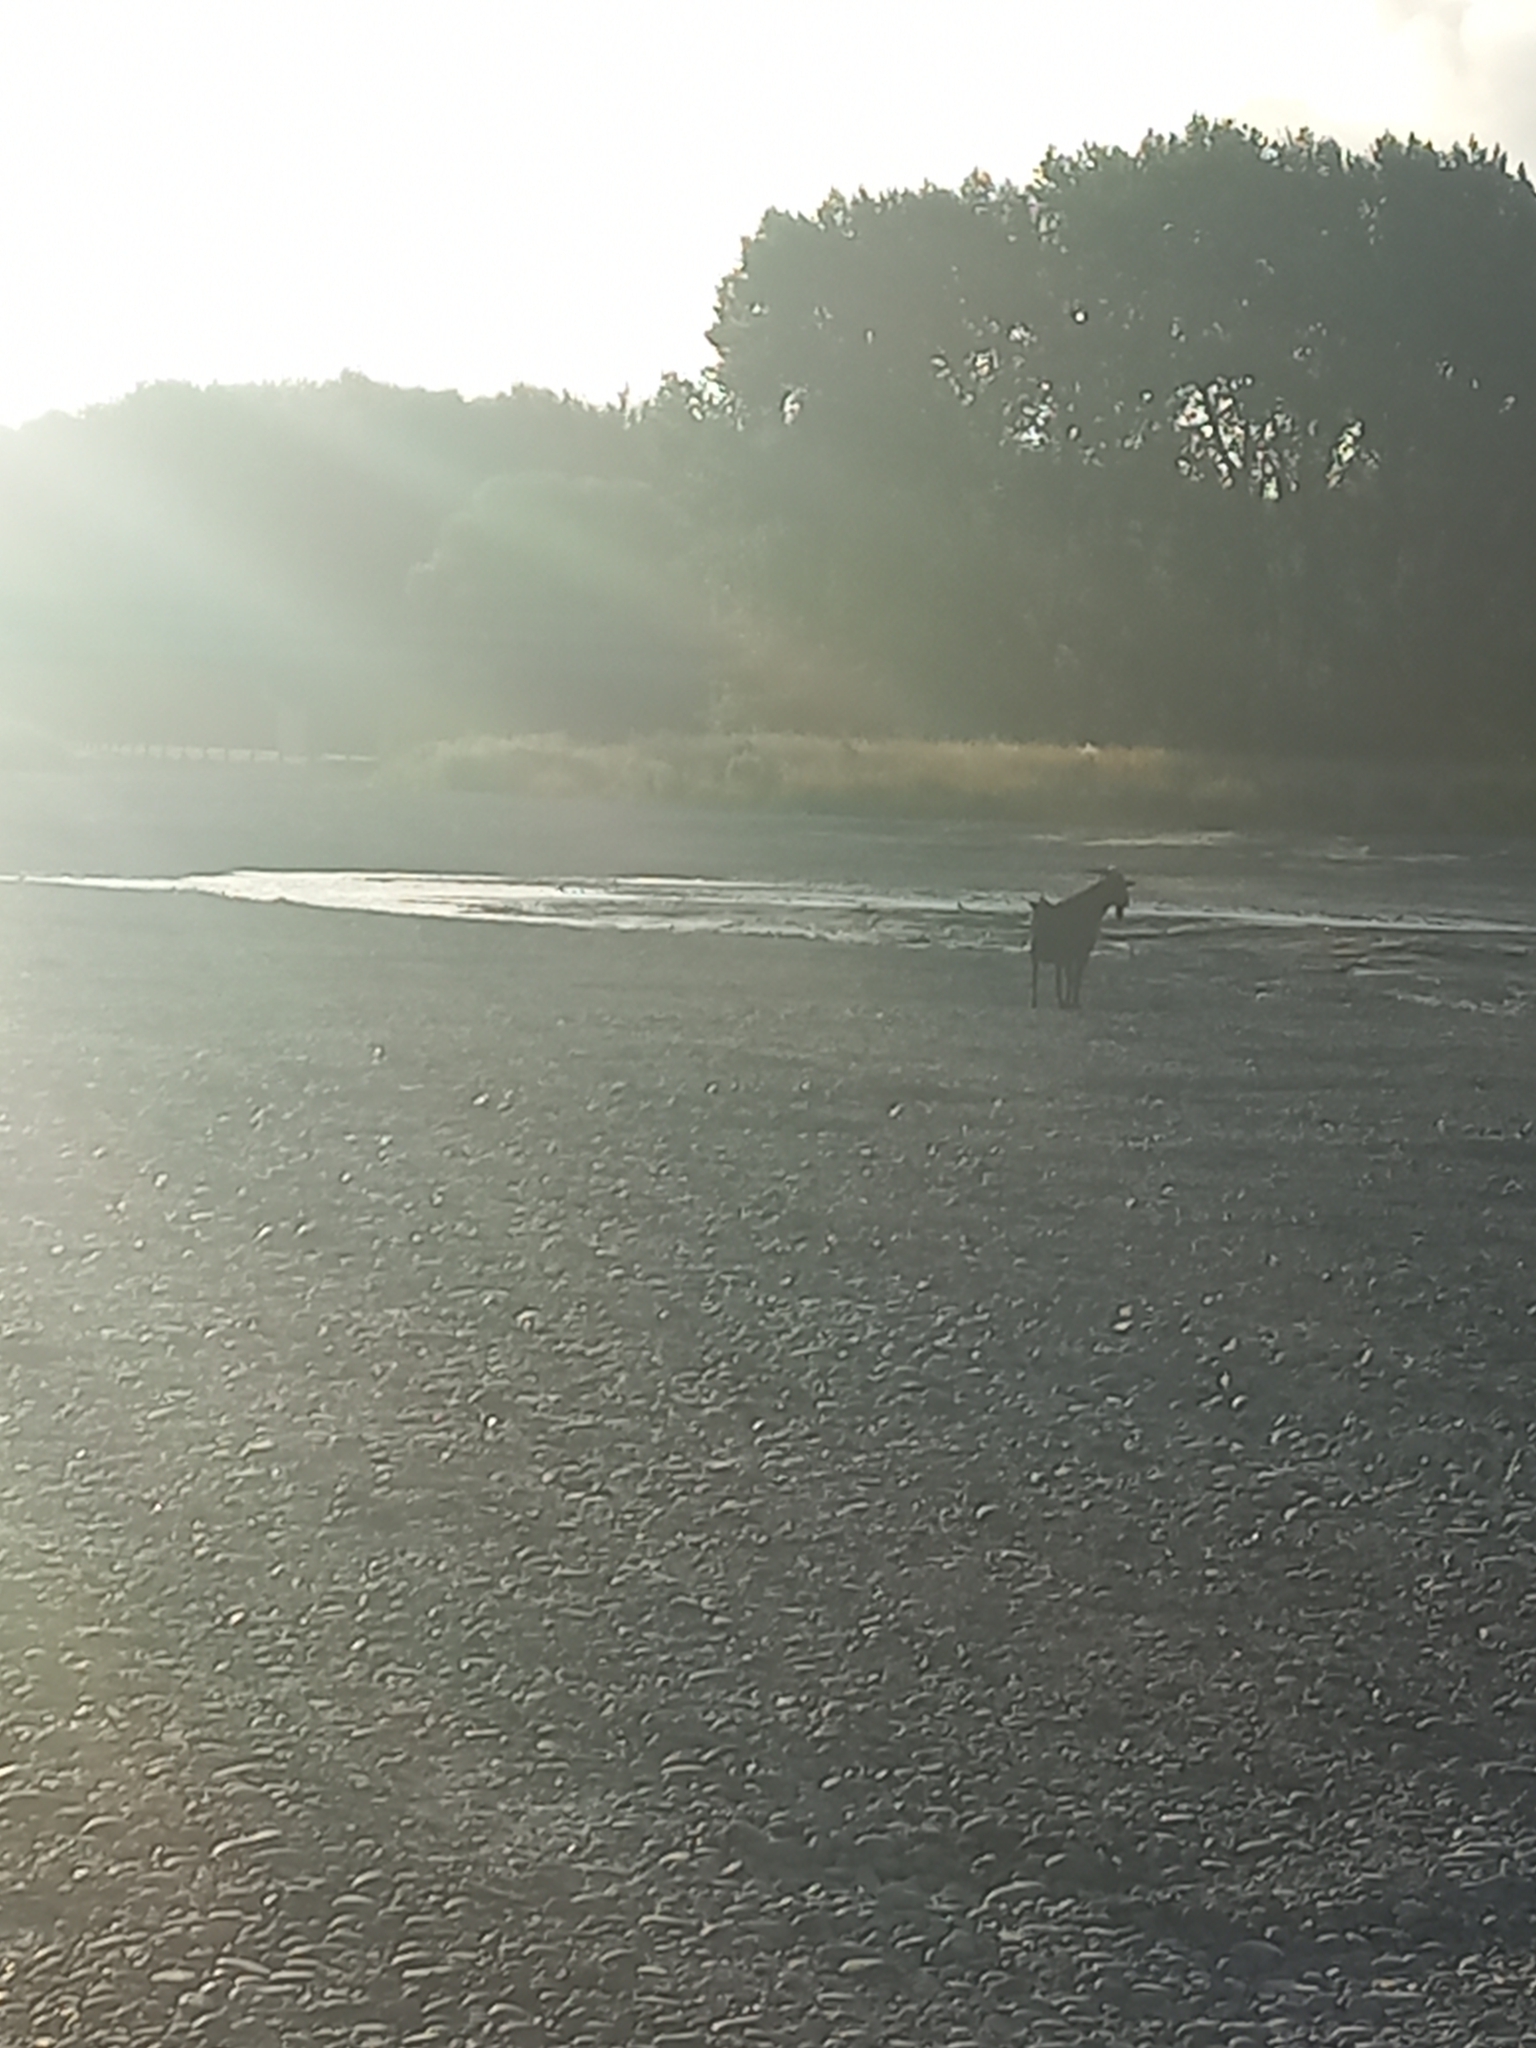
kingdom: Animalia
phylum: Chordata
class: Mammalia
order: Artiodactyla
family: Bovidae
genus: Capra
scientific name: Capra hircus
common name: Domestic goat
